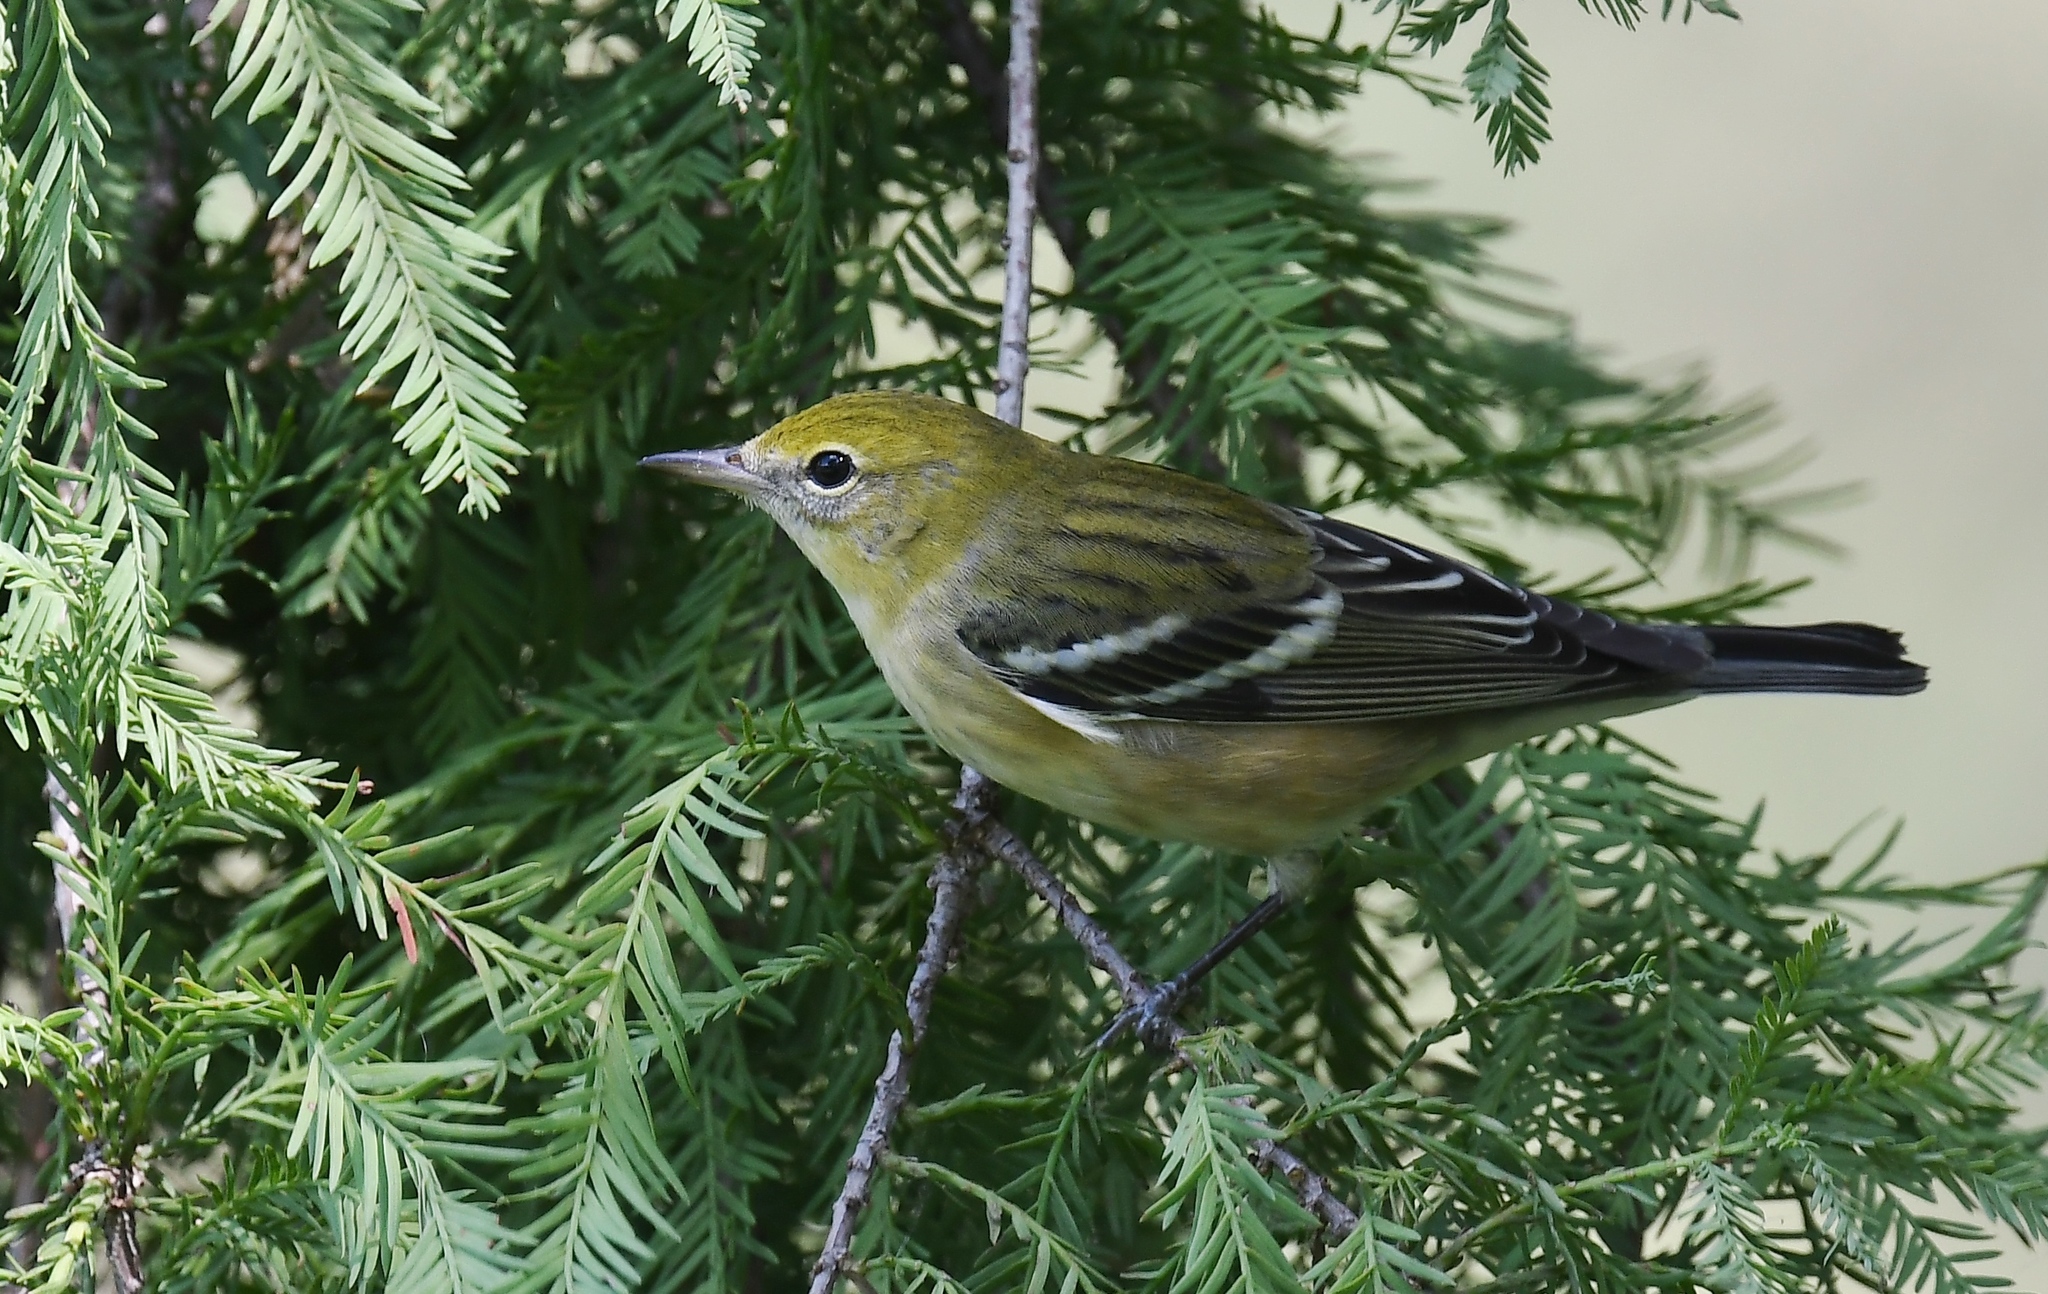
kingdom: Animalia
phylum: Chordata
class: Aves
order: Passeriformes
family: Parulidae
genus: Setophaga
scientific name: Setophaga castanea
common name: Bay-breasted warbler
